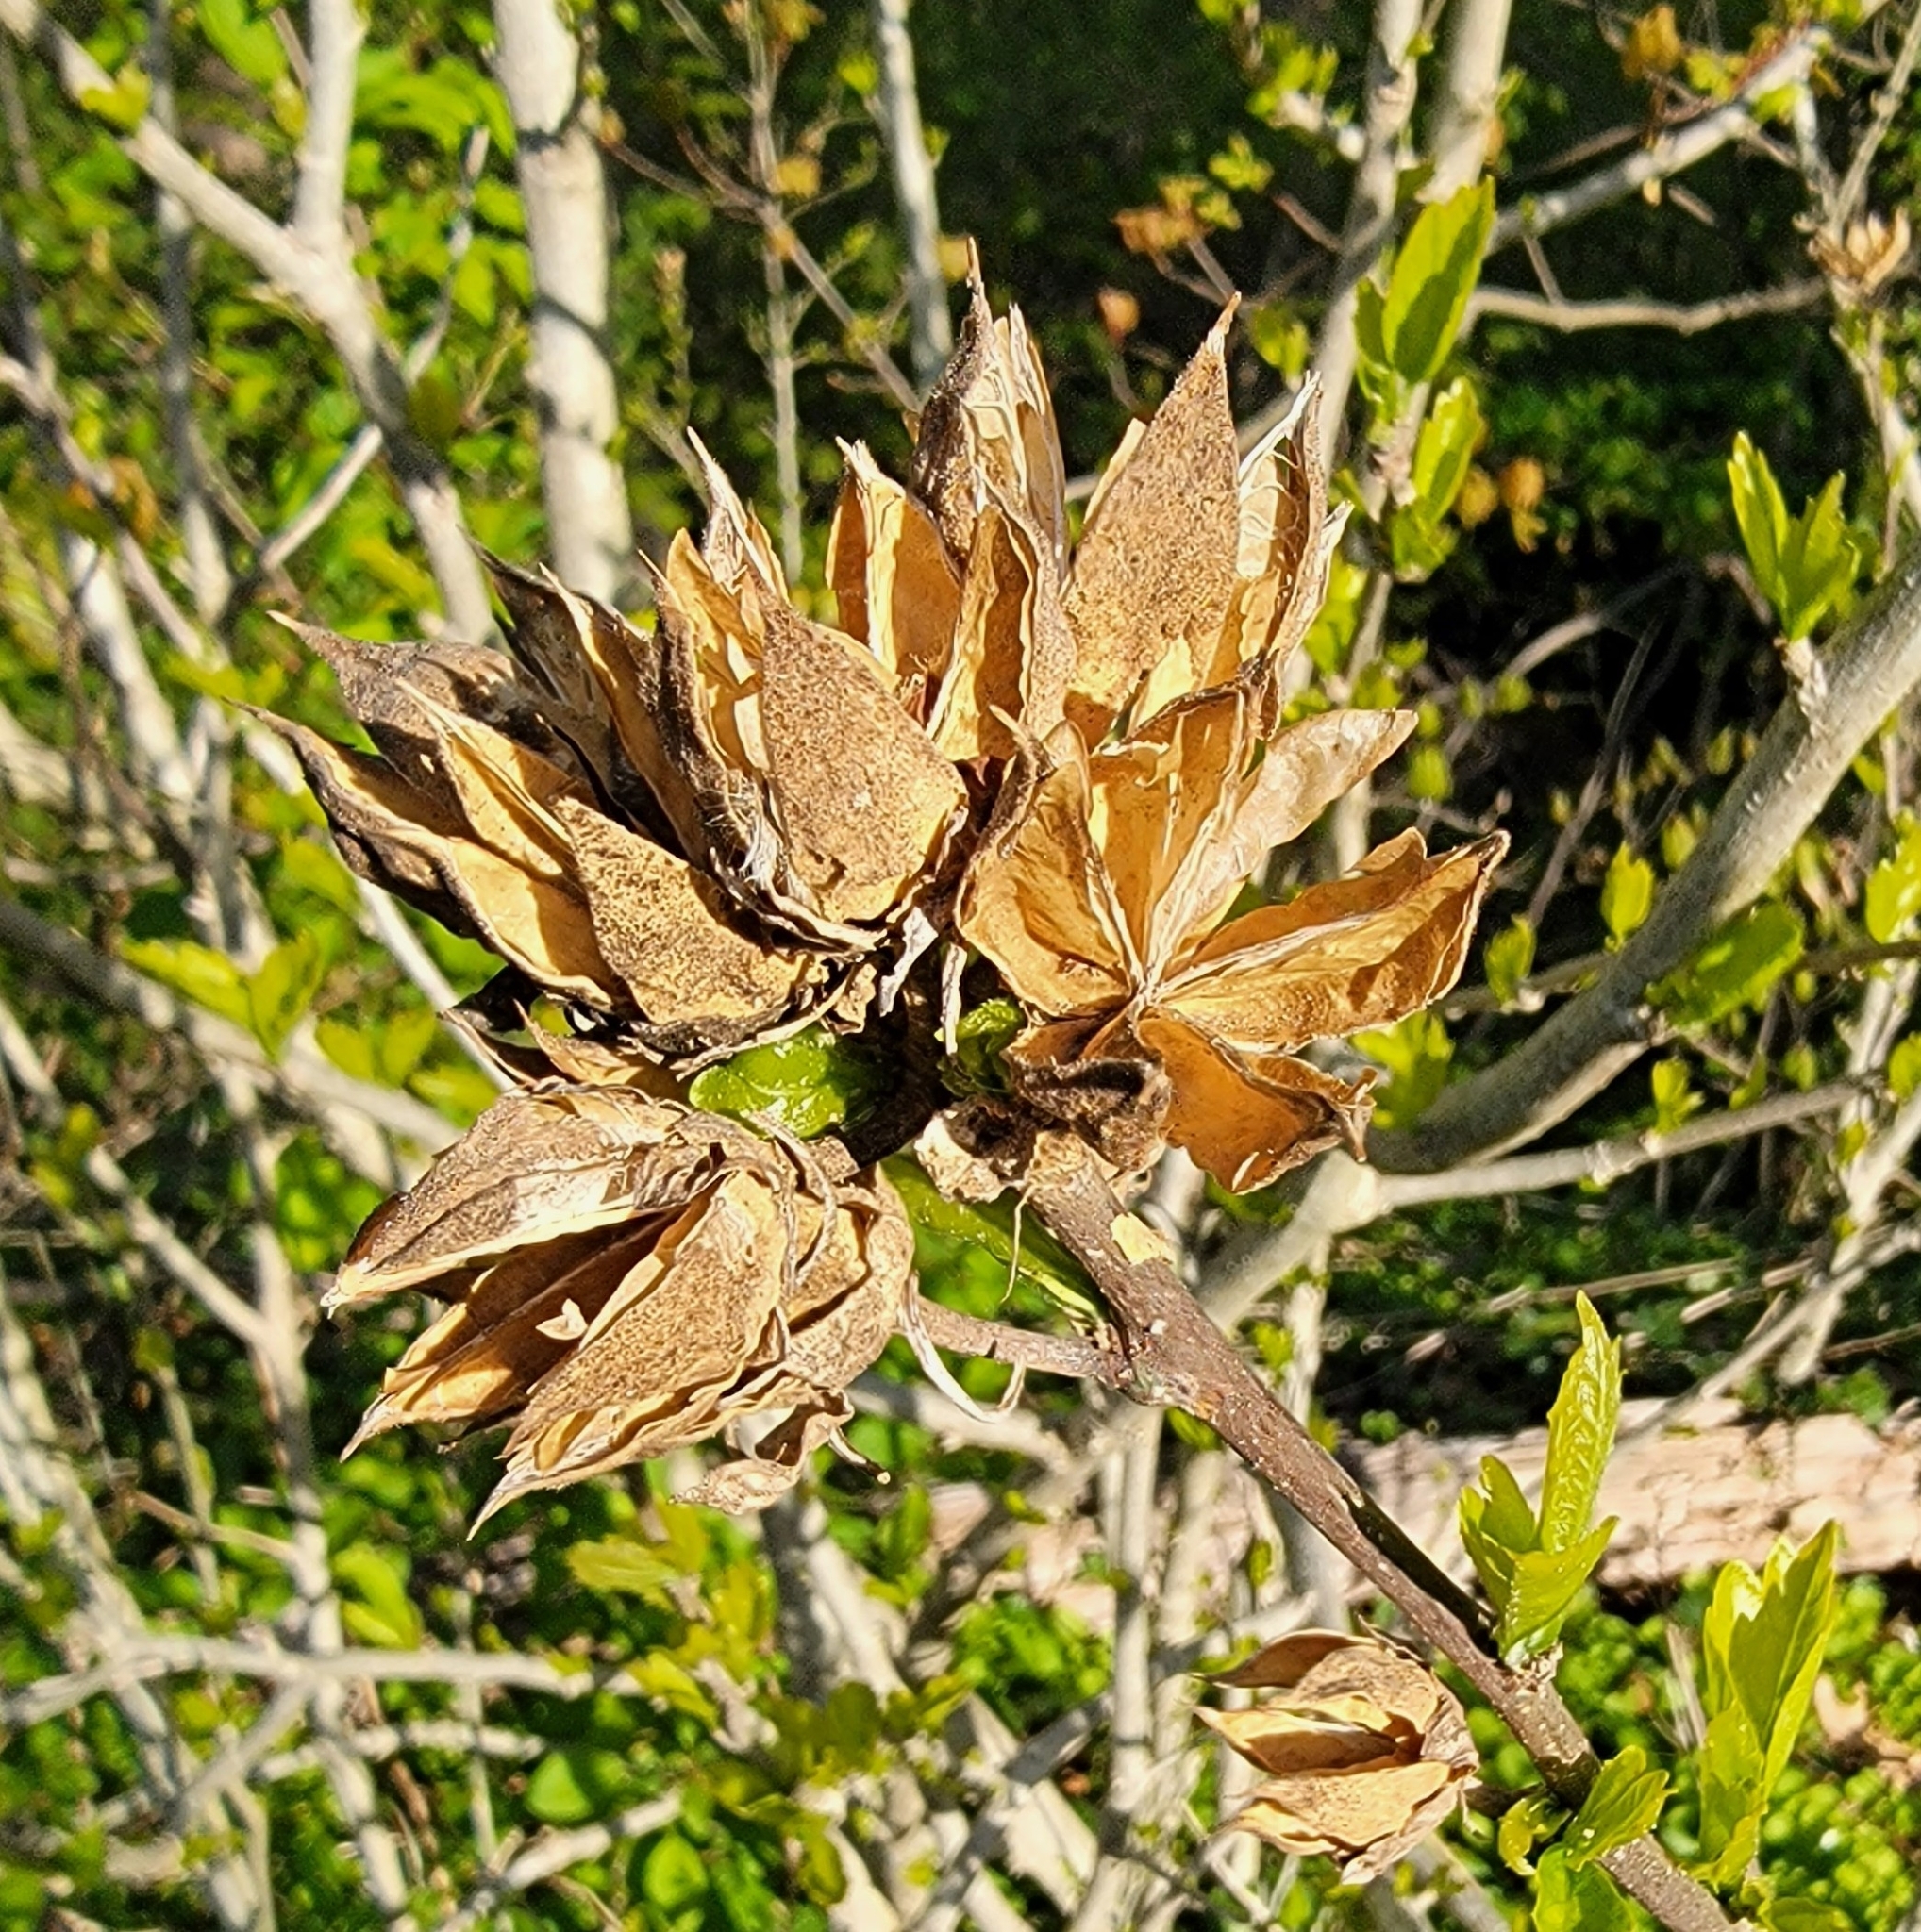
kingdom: Plantae
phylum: Tracheophyta
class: Magnoliopsida
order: Malvales
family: Malvaceae
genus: Hibiscus
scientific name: Hibiscus syriacus
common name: Syrian ketmia
